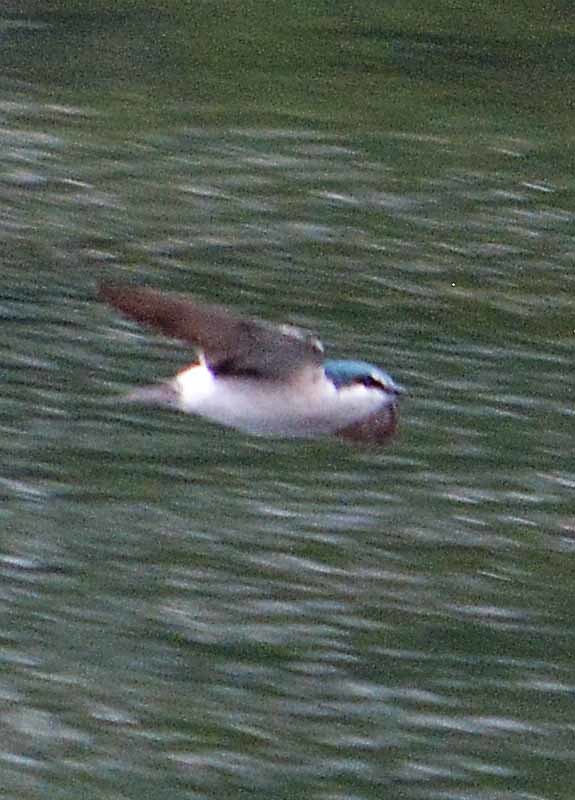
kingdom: Animalia
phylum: Chordata
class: Aves
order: Passeriformes
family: Hirundinidae
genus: Tachycineta
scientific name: Tachycineta albilinea
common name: Mangrove swallow
